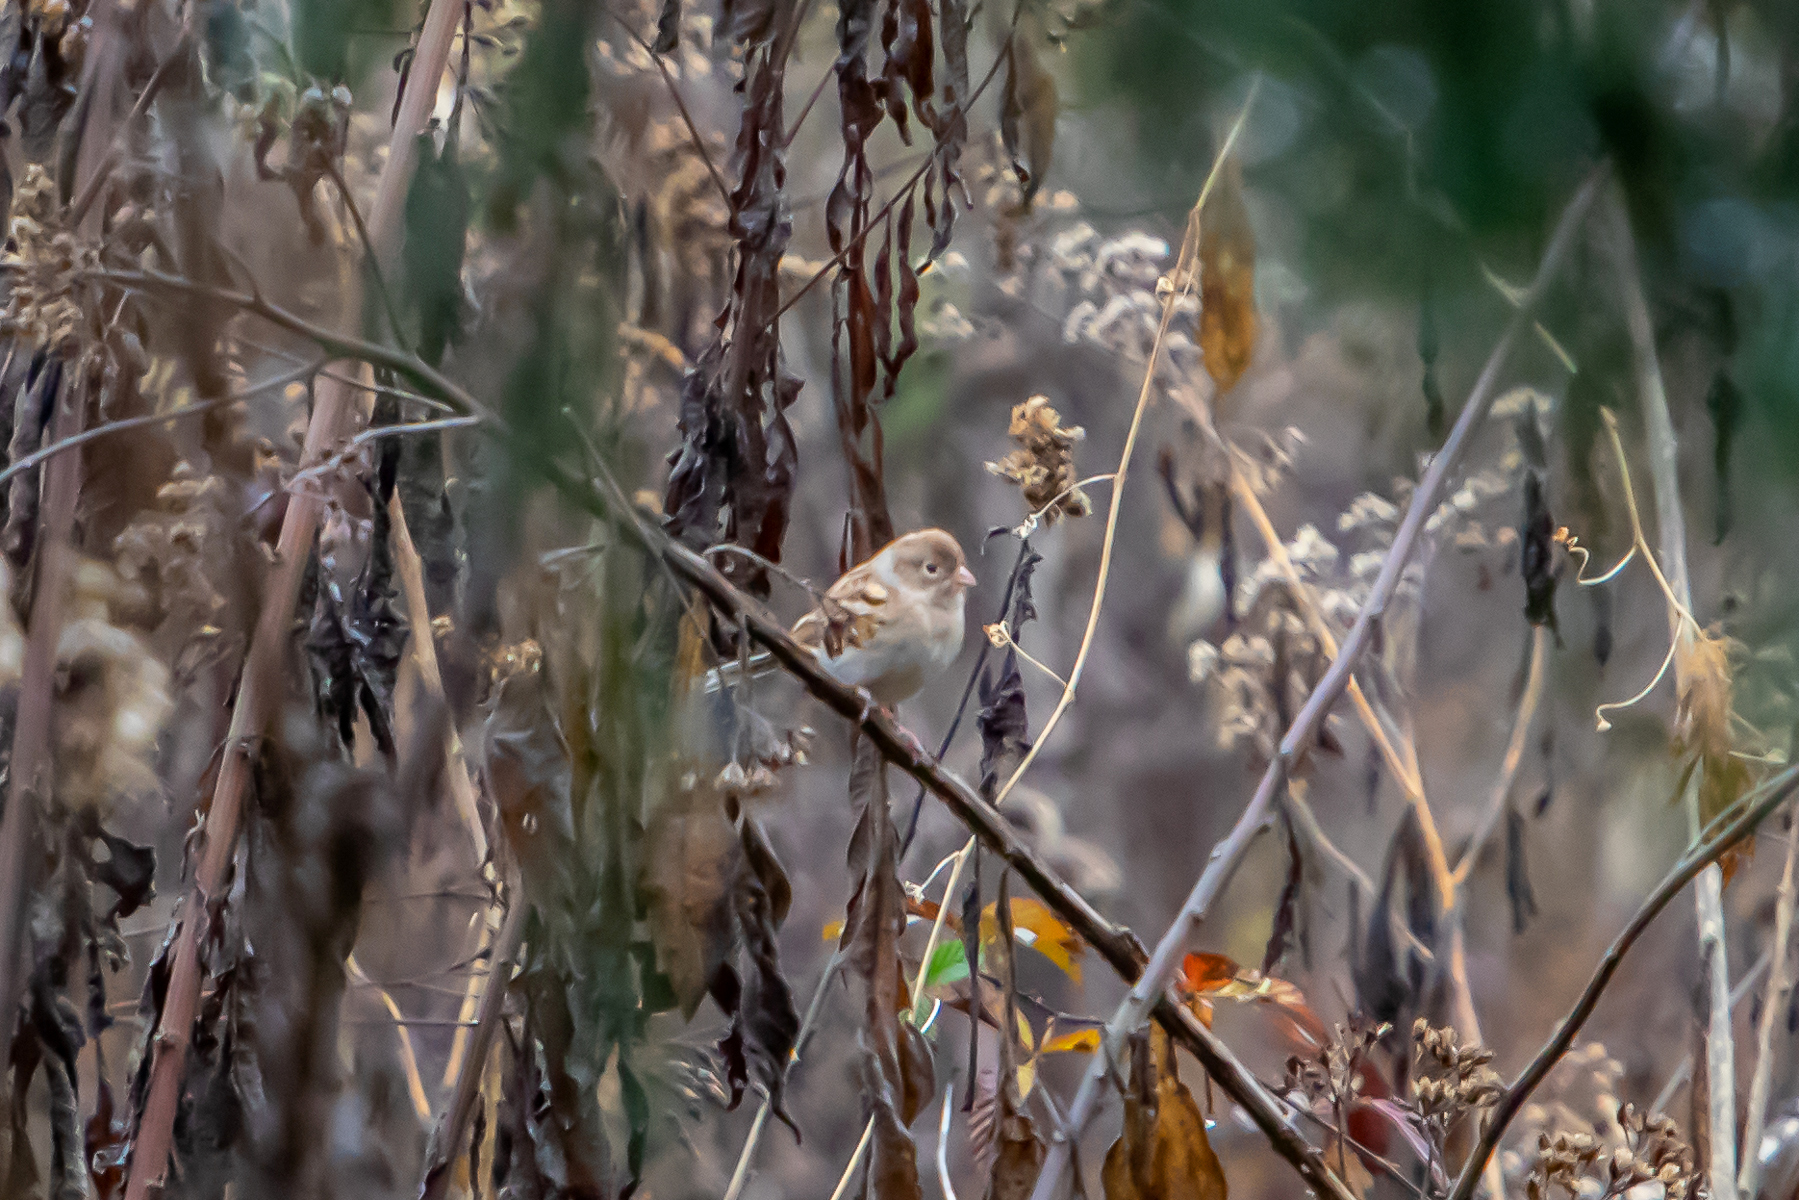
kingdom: Animalia
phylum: Chordata
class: Aves
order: Passeriformes
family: Passerellidae
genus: Spizella
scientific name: Spizella pusilla
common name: Field sparrow
